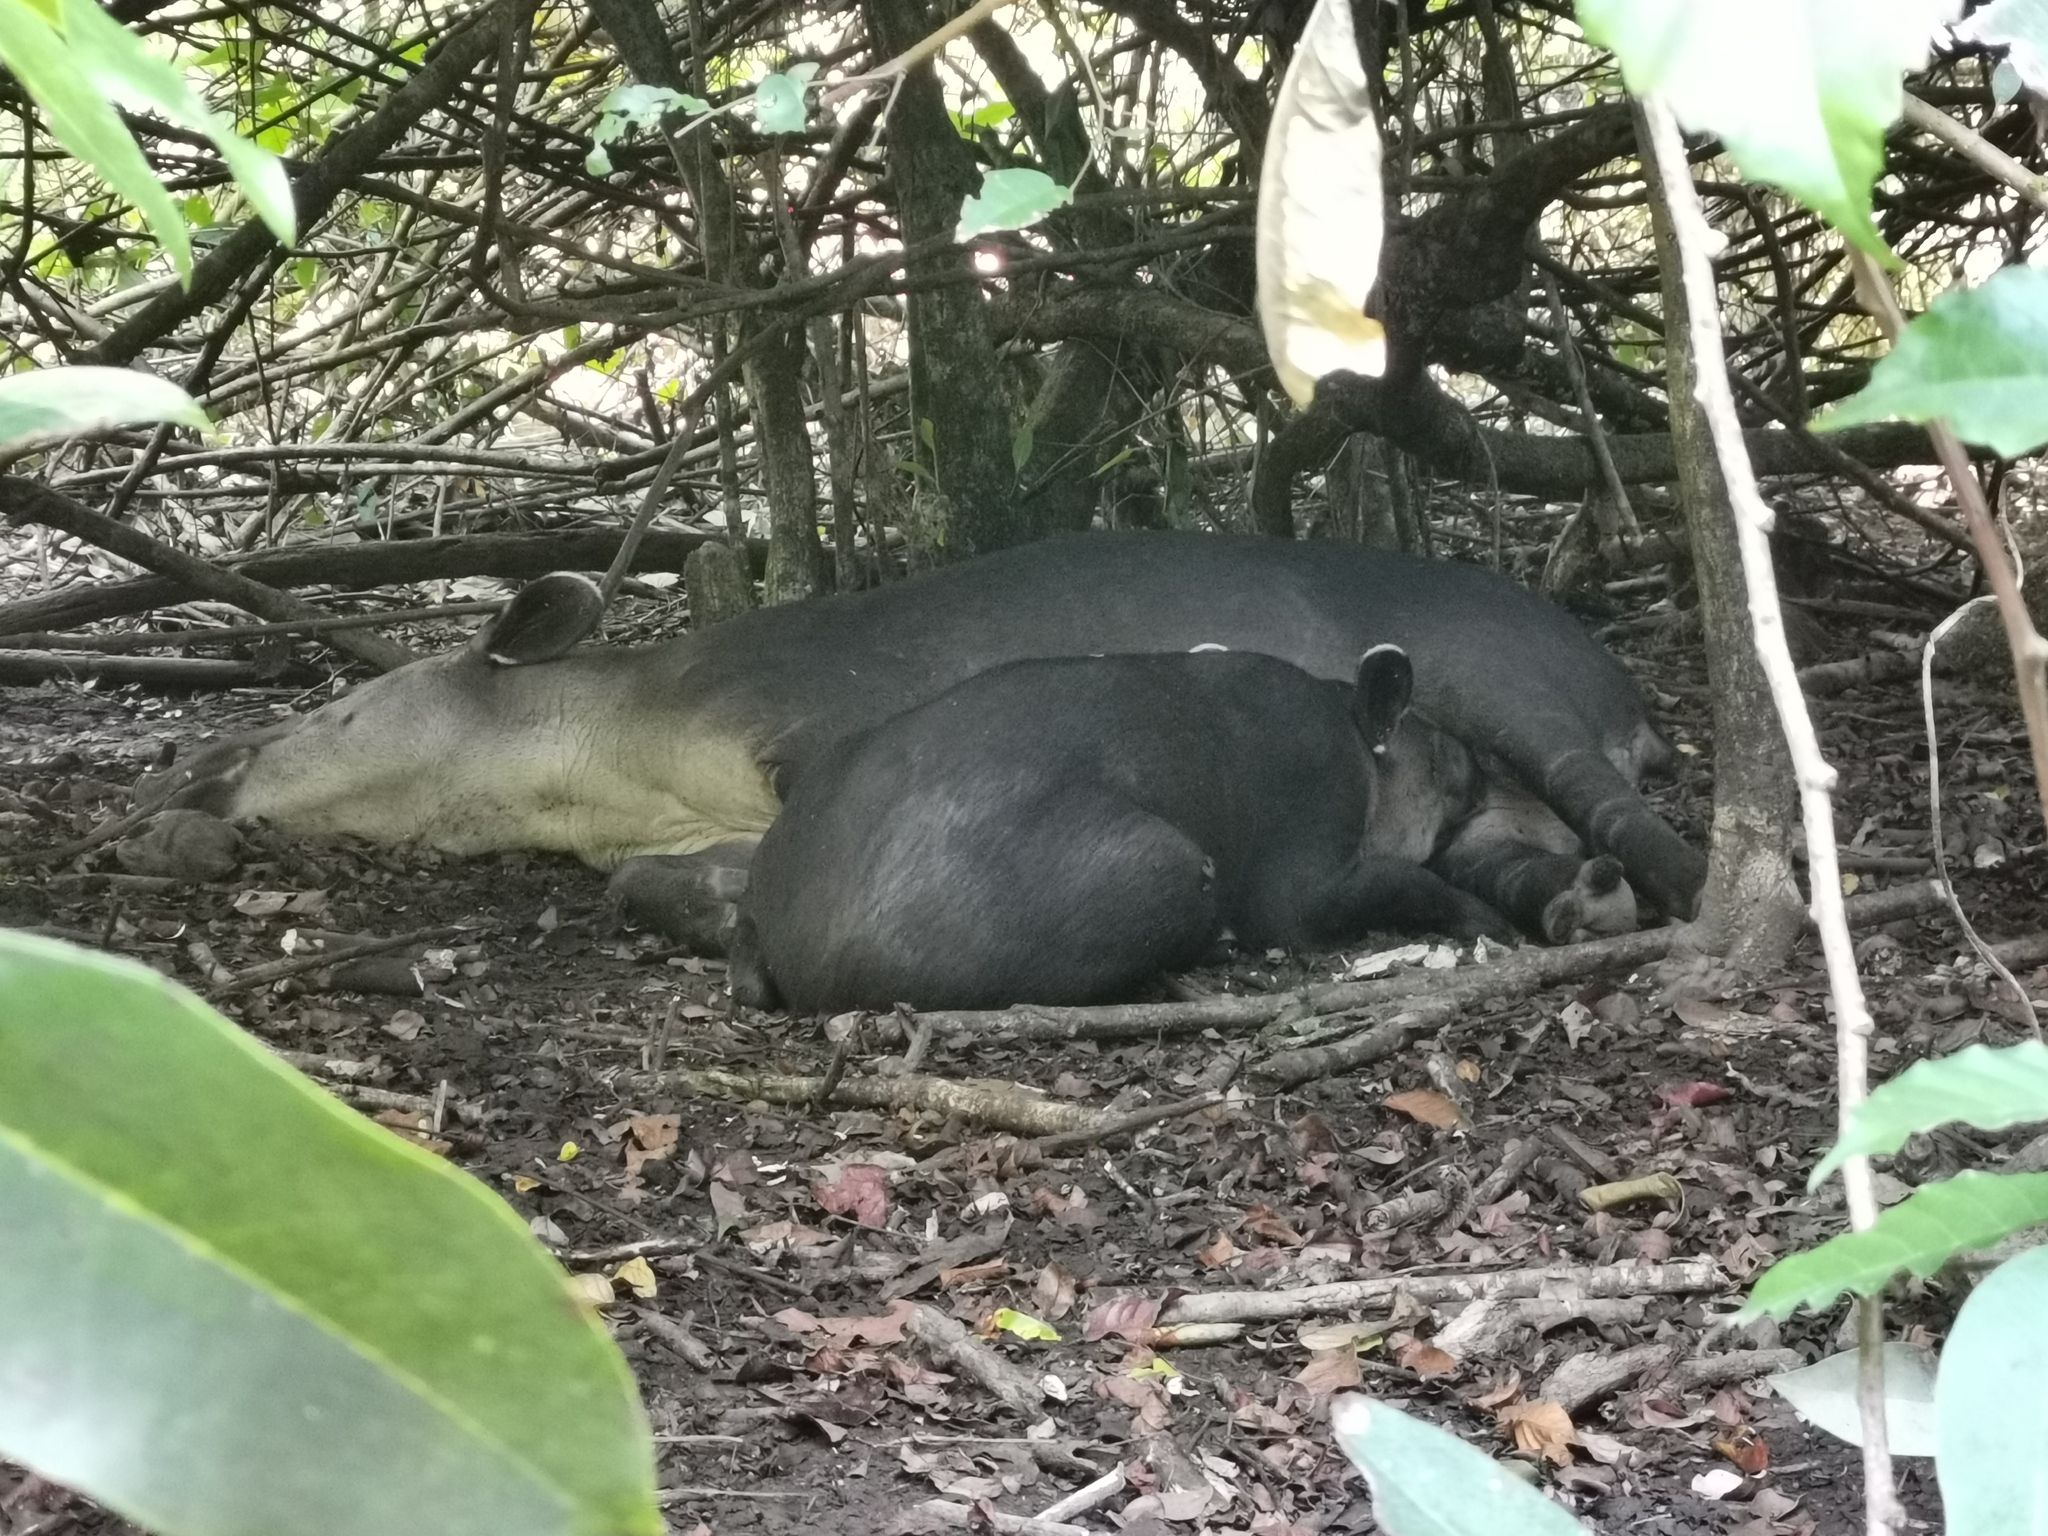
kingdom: Animalia
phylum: Chordata
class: Mammalia
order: Perissodactyla
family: Tapiridae
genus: Tapirella
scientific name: Tapirella bairdii
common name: Baird's tapir
